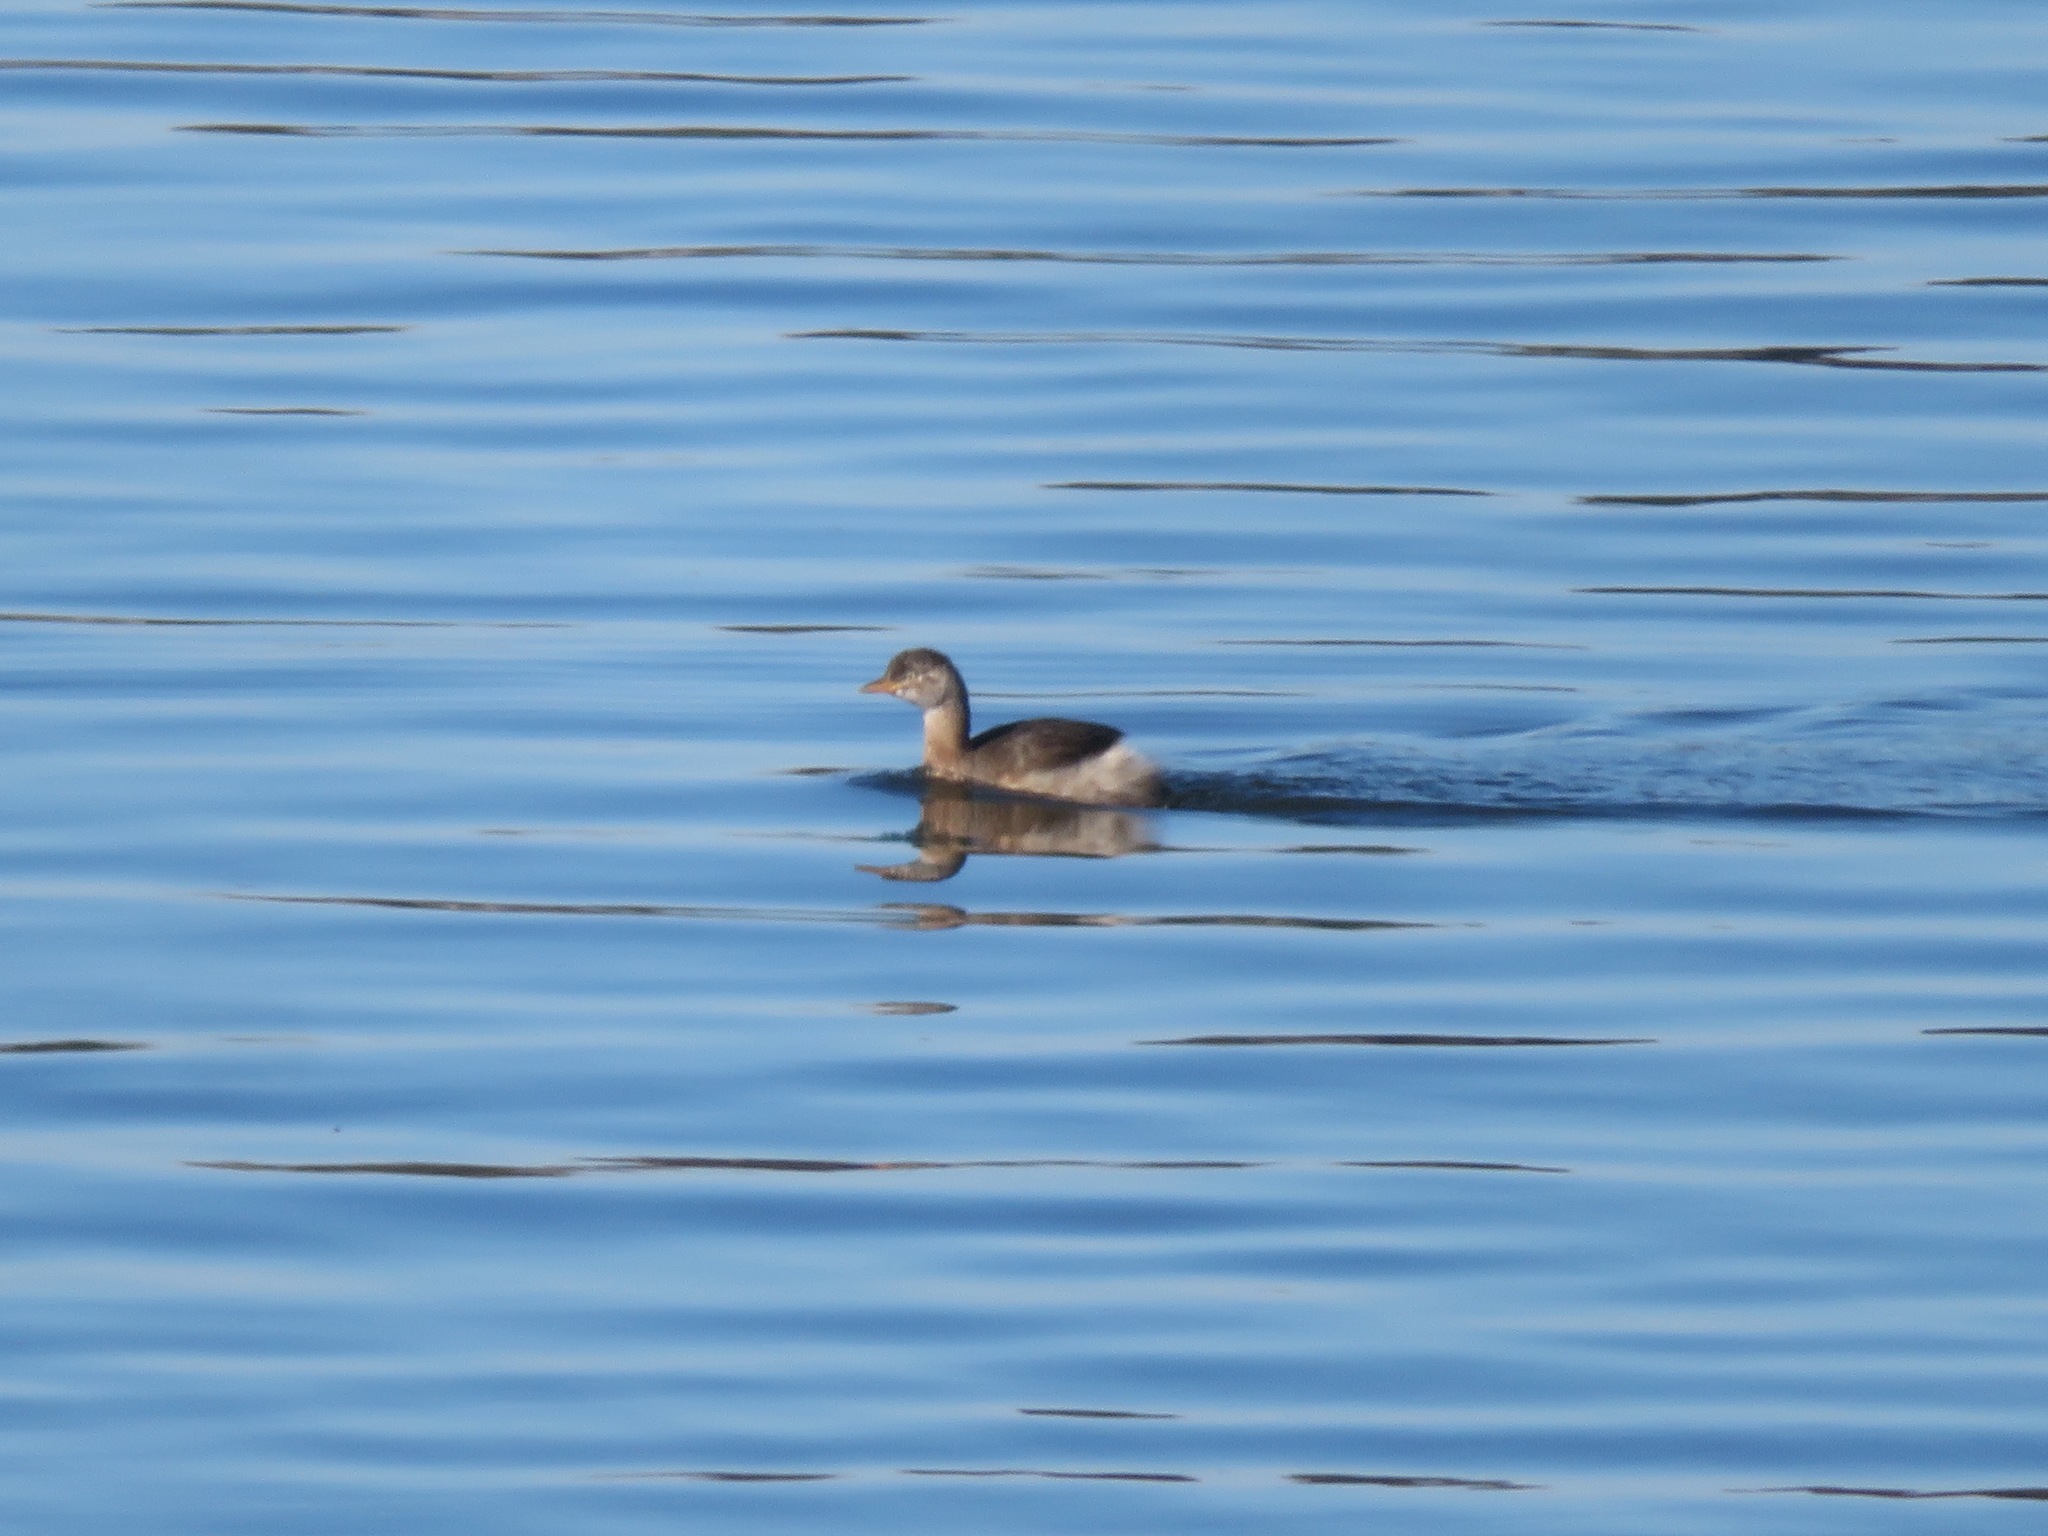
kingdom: Animalia
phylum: Chordata
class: Aves
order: Podicipediformes
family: Podicipedidae
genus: Tachybaptus
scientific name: Tachybaptus ruficollis
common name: Little grebe
